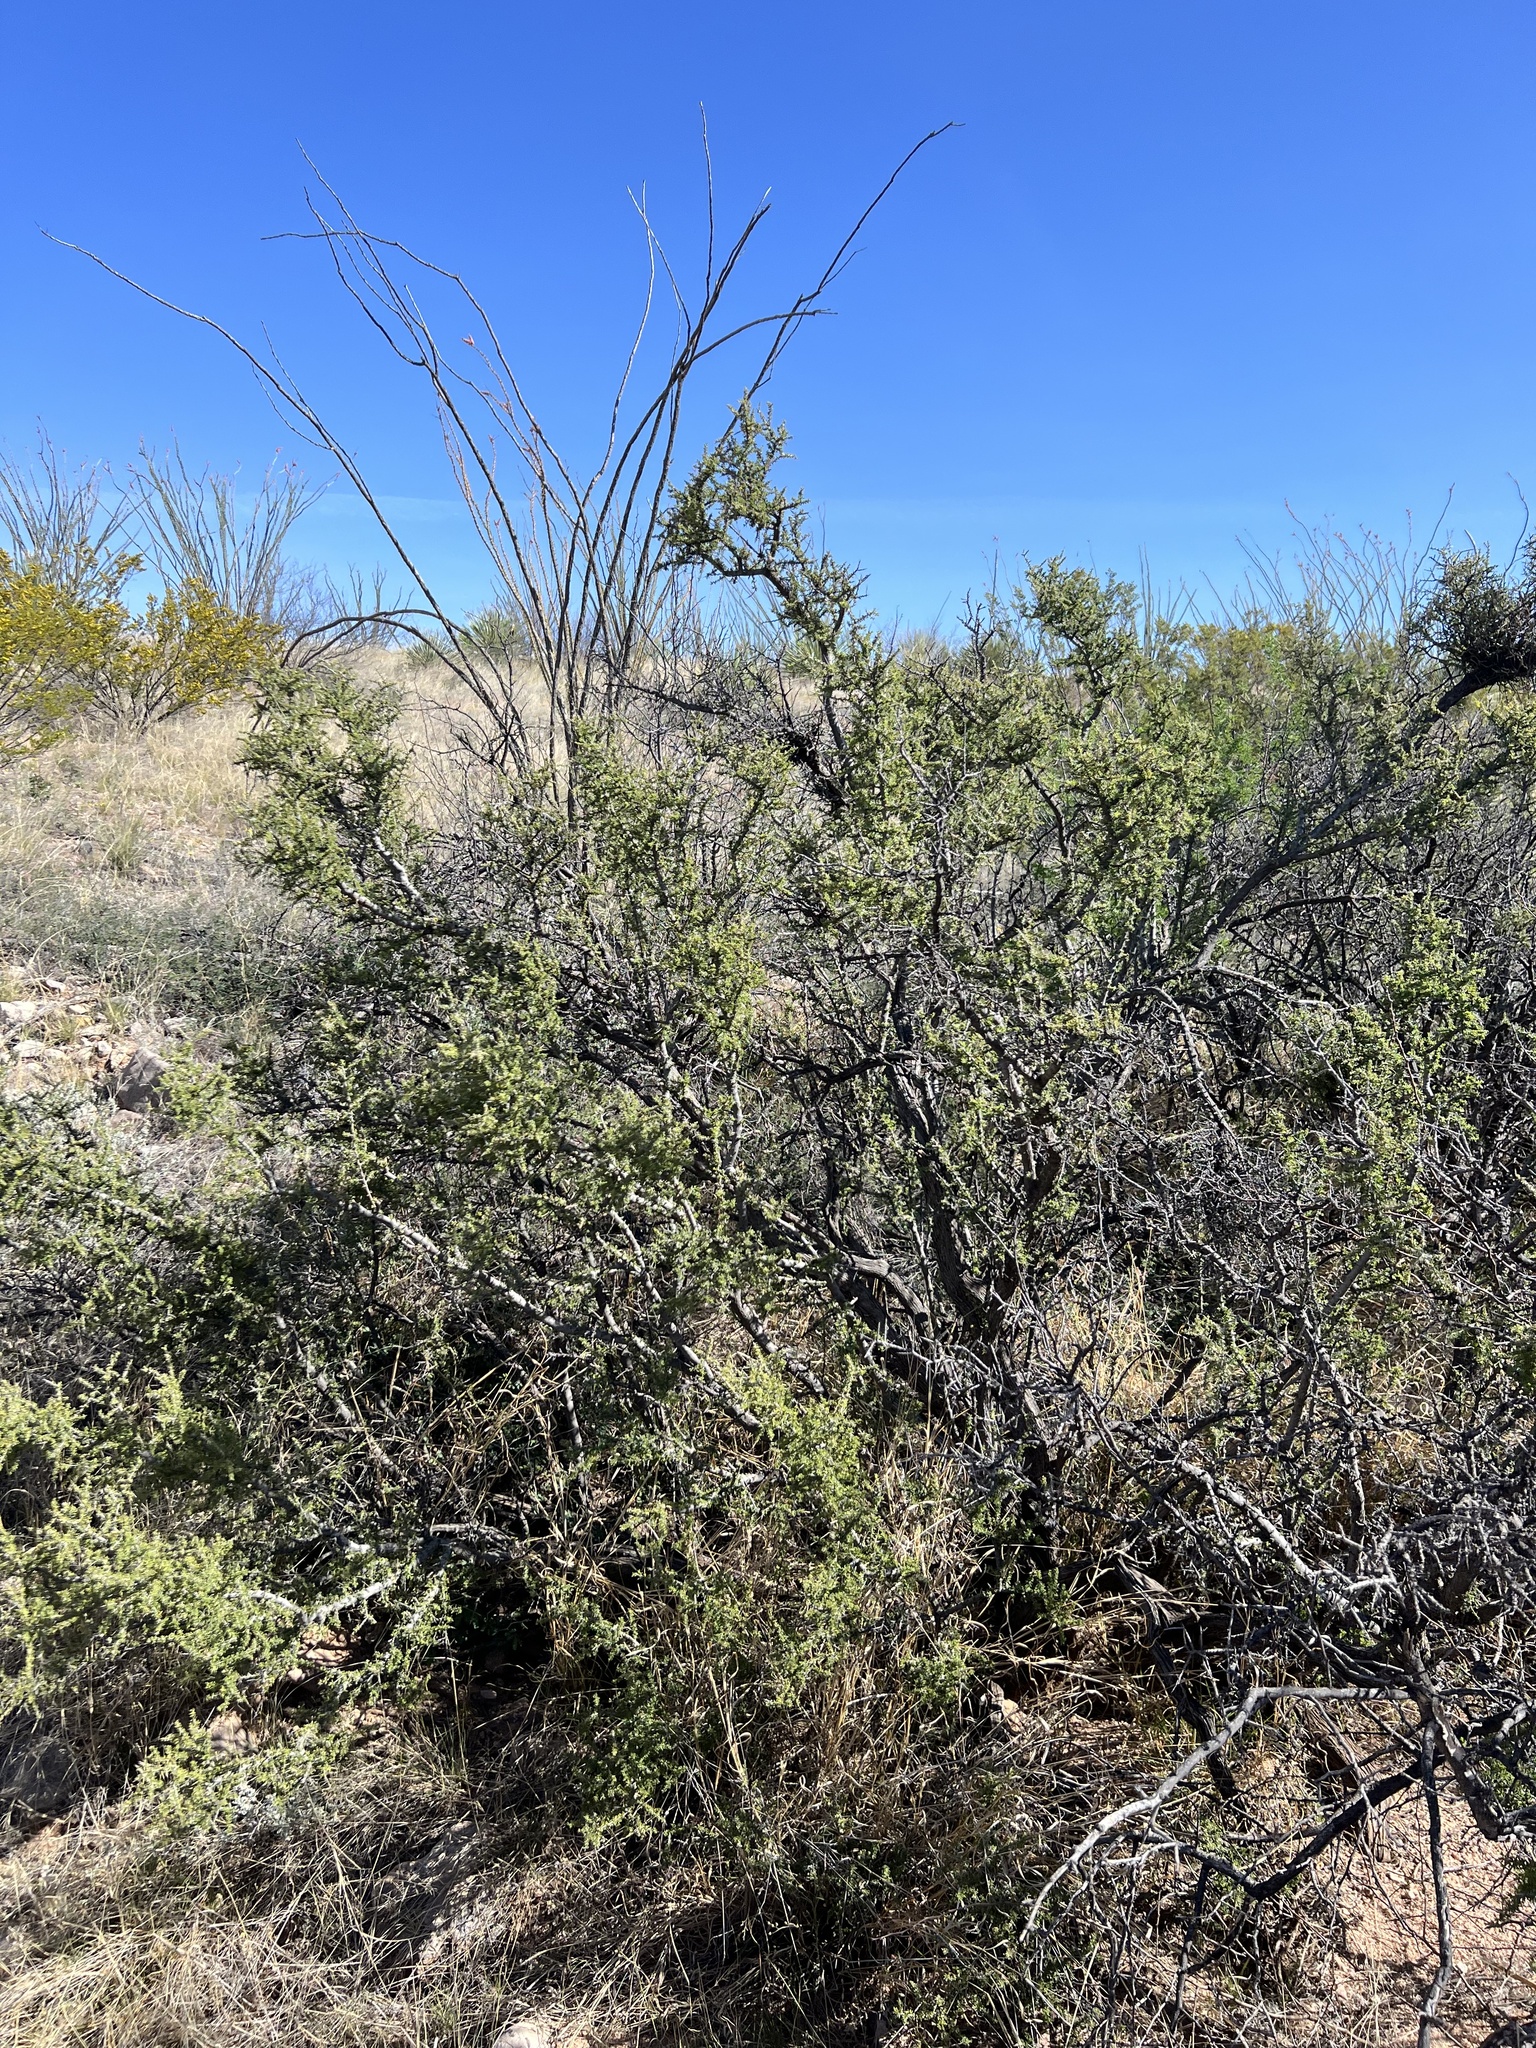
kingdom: Plantae
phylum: Tracheophyta
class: Magnoliopsida
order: Rosales
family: Rhamnaceae
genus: Condalia
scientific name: Condalia warnockii
